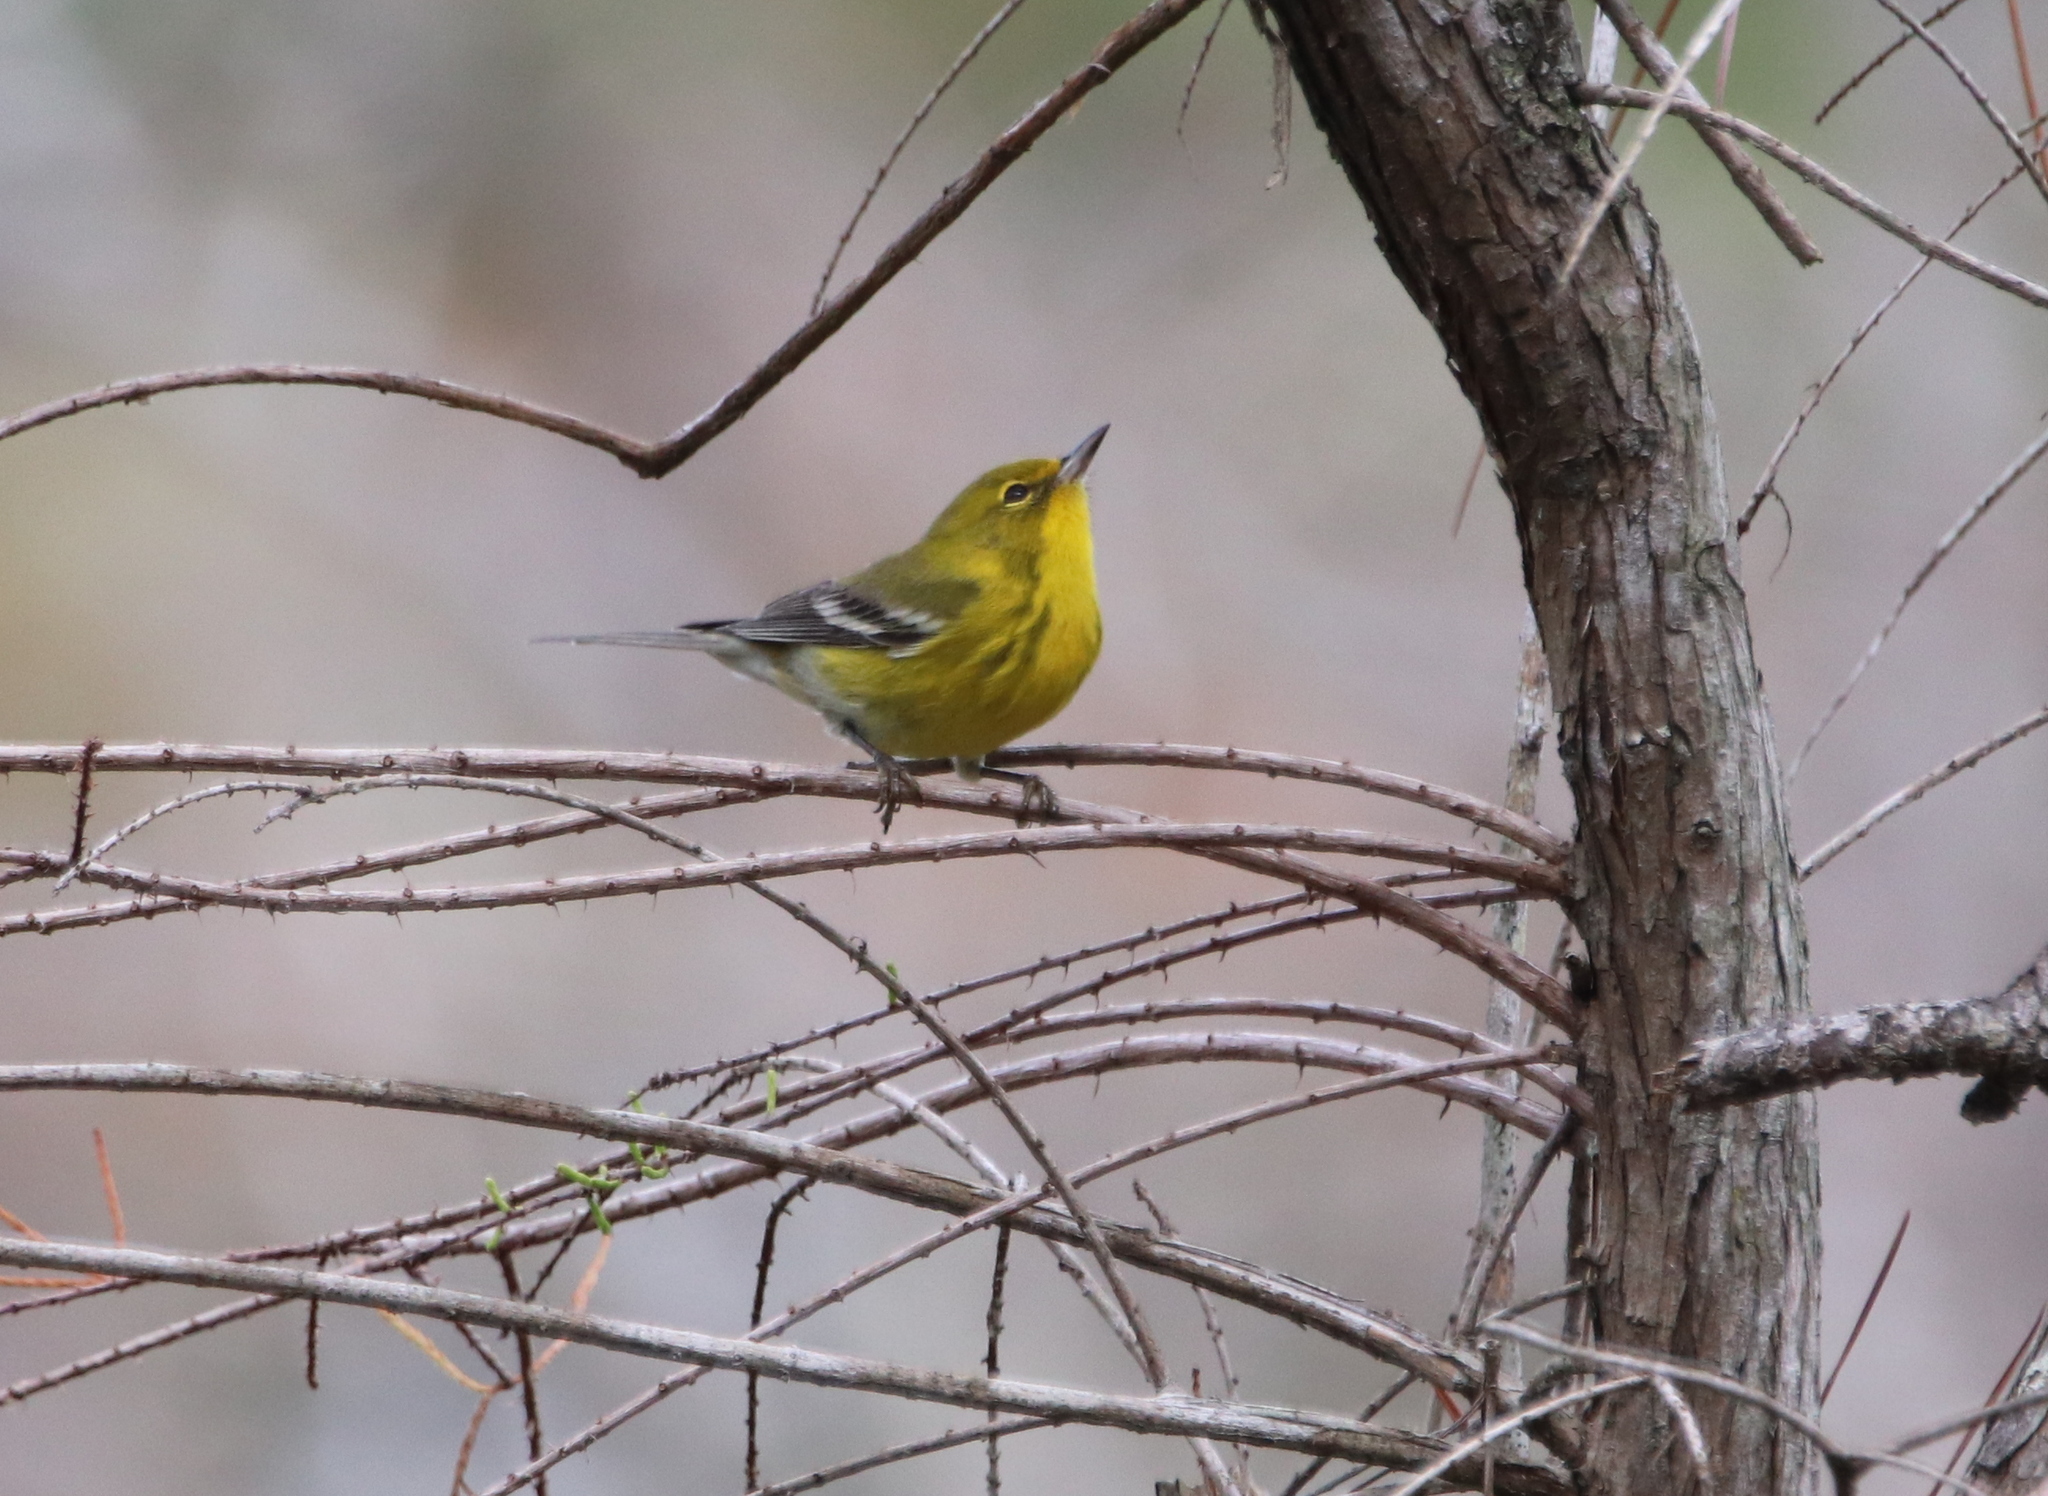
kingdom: Animalia
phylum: Chordata
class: Aves
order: Passeriformes
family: Parulidae
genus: Setophaga
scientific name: Setophaga pinus
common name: Pine warbler
